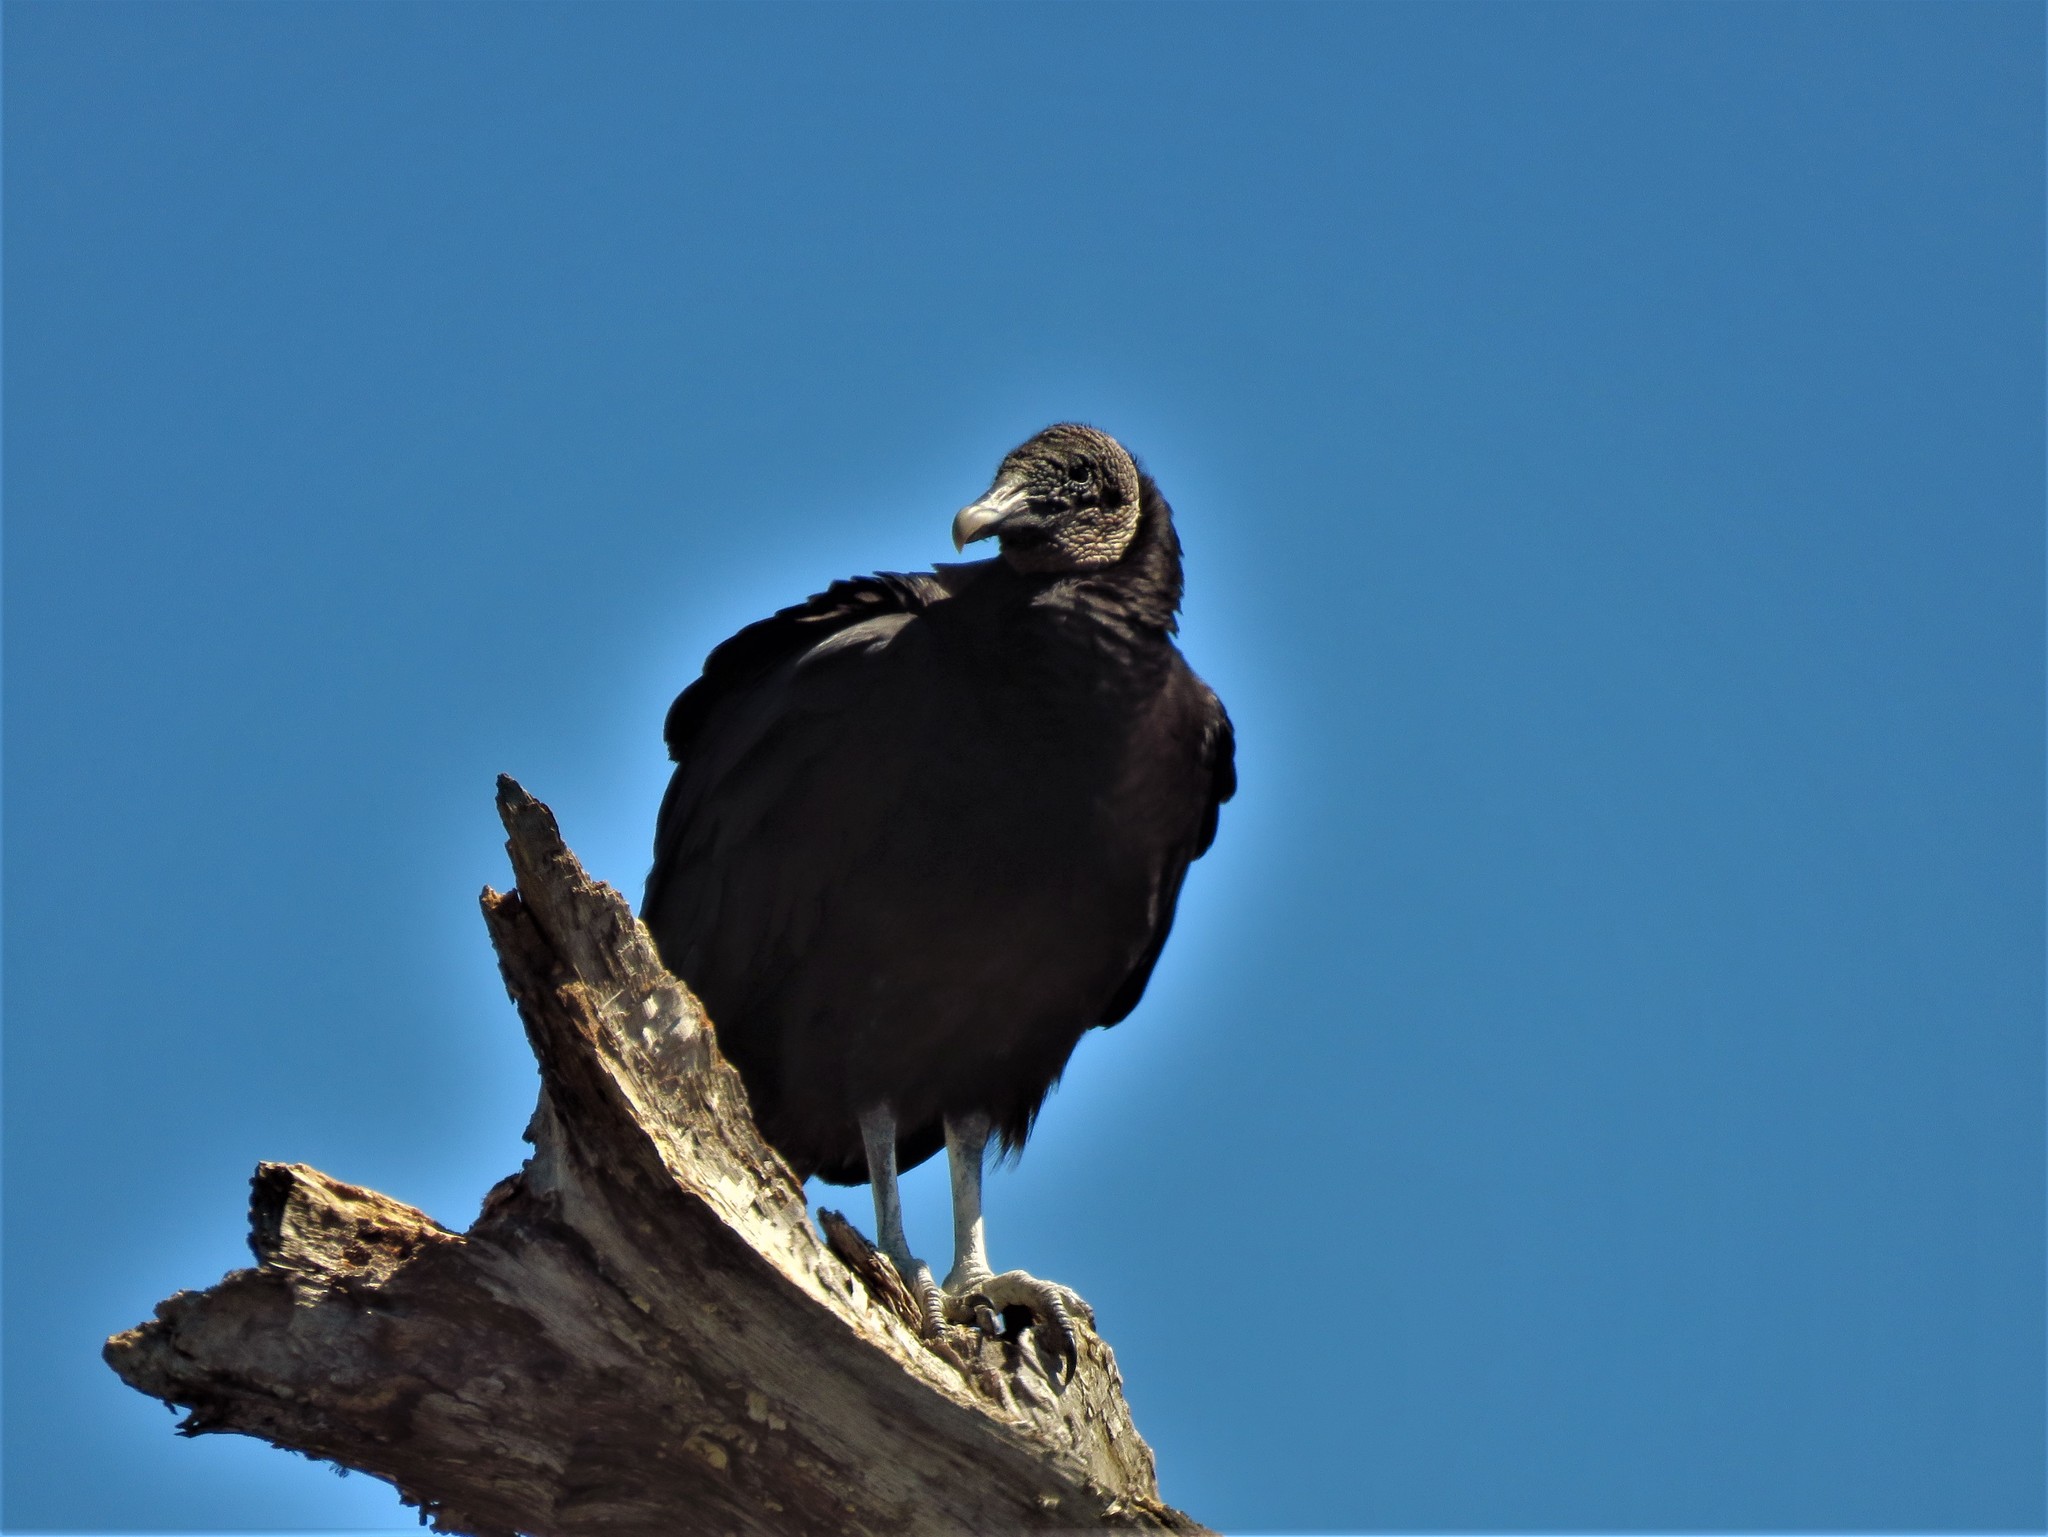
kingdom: Animalia
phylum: Chordata
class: Aves
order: Accipitriformes
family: Cathartidae
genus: Coragyps
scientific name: Coragyps atratus
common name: Black vulture
